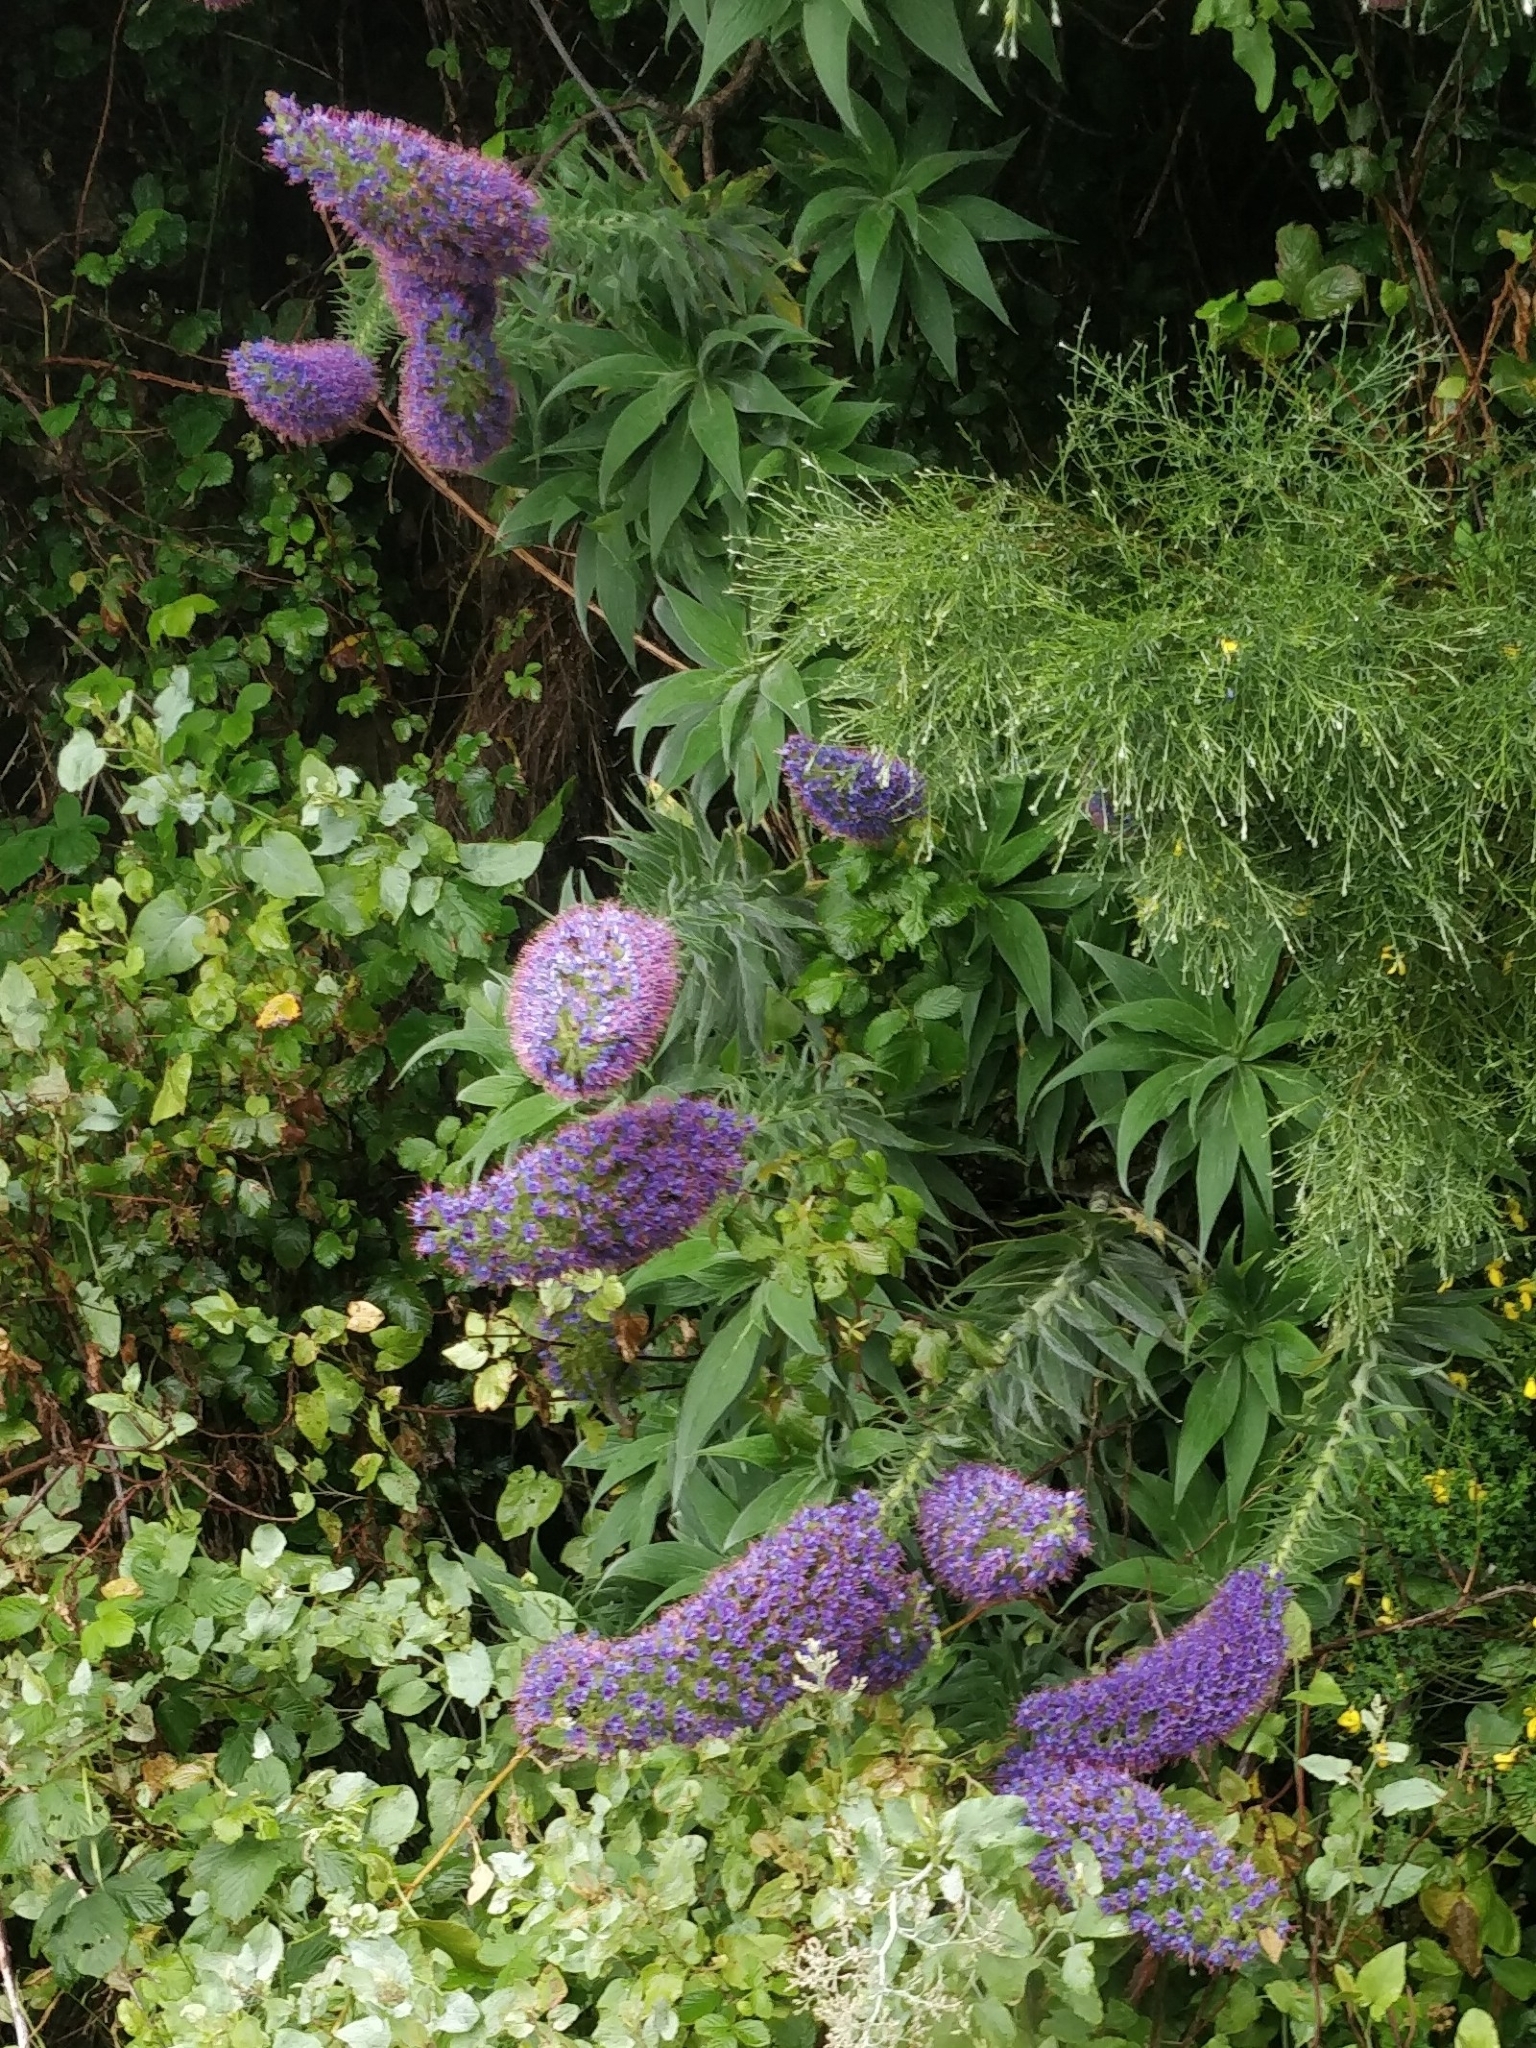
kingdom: Plantae
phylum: Tracheophyta
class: Magnoliopsida
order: Boraginales
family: Boraginaceae
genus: Echium
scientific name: Echium candicans
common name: Pride of madeira
